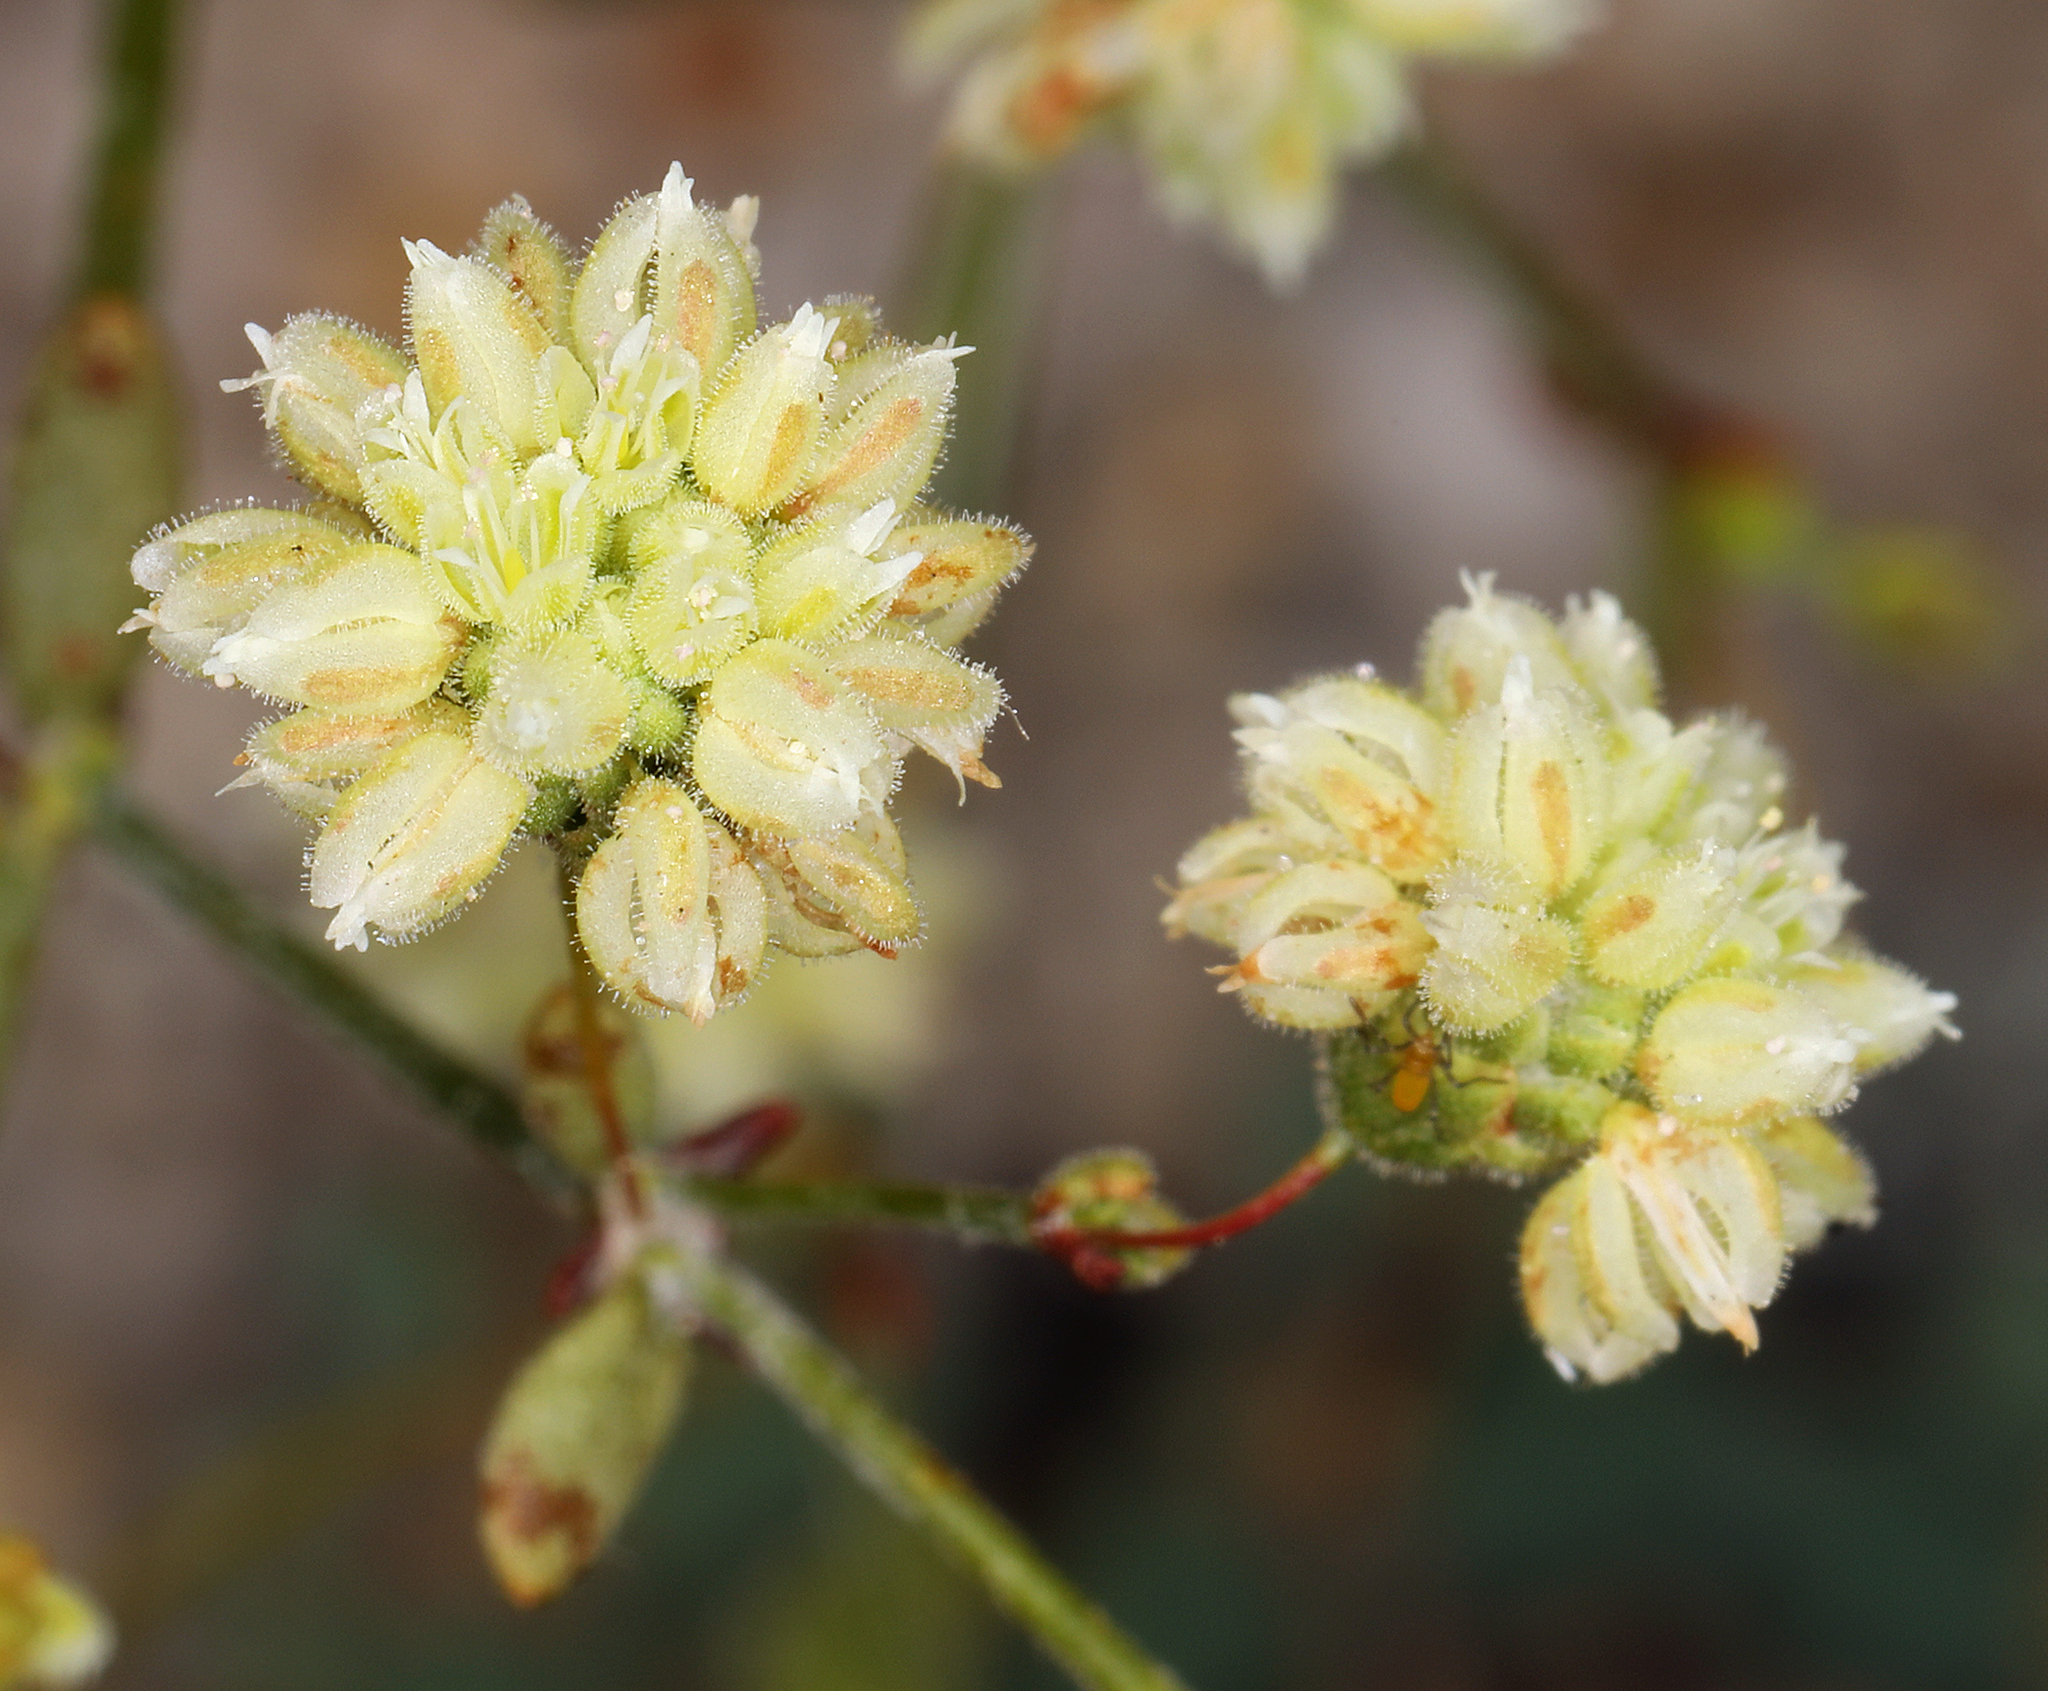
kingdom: Plantae
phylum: Tracheophyta
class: Magnoliopsida
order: Caryophyllales
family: Polygonaceae
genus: Eriogonum
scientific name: Eriogonum maculatum
